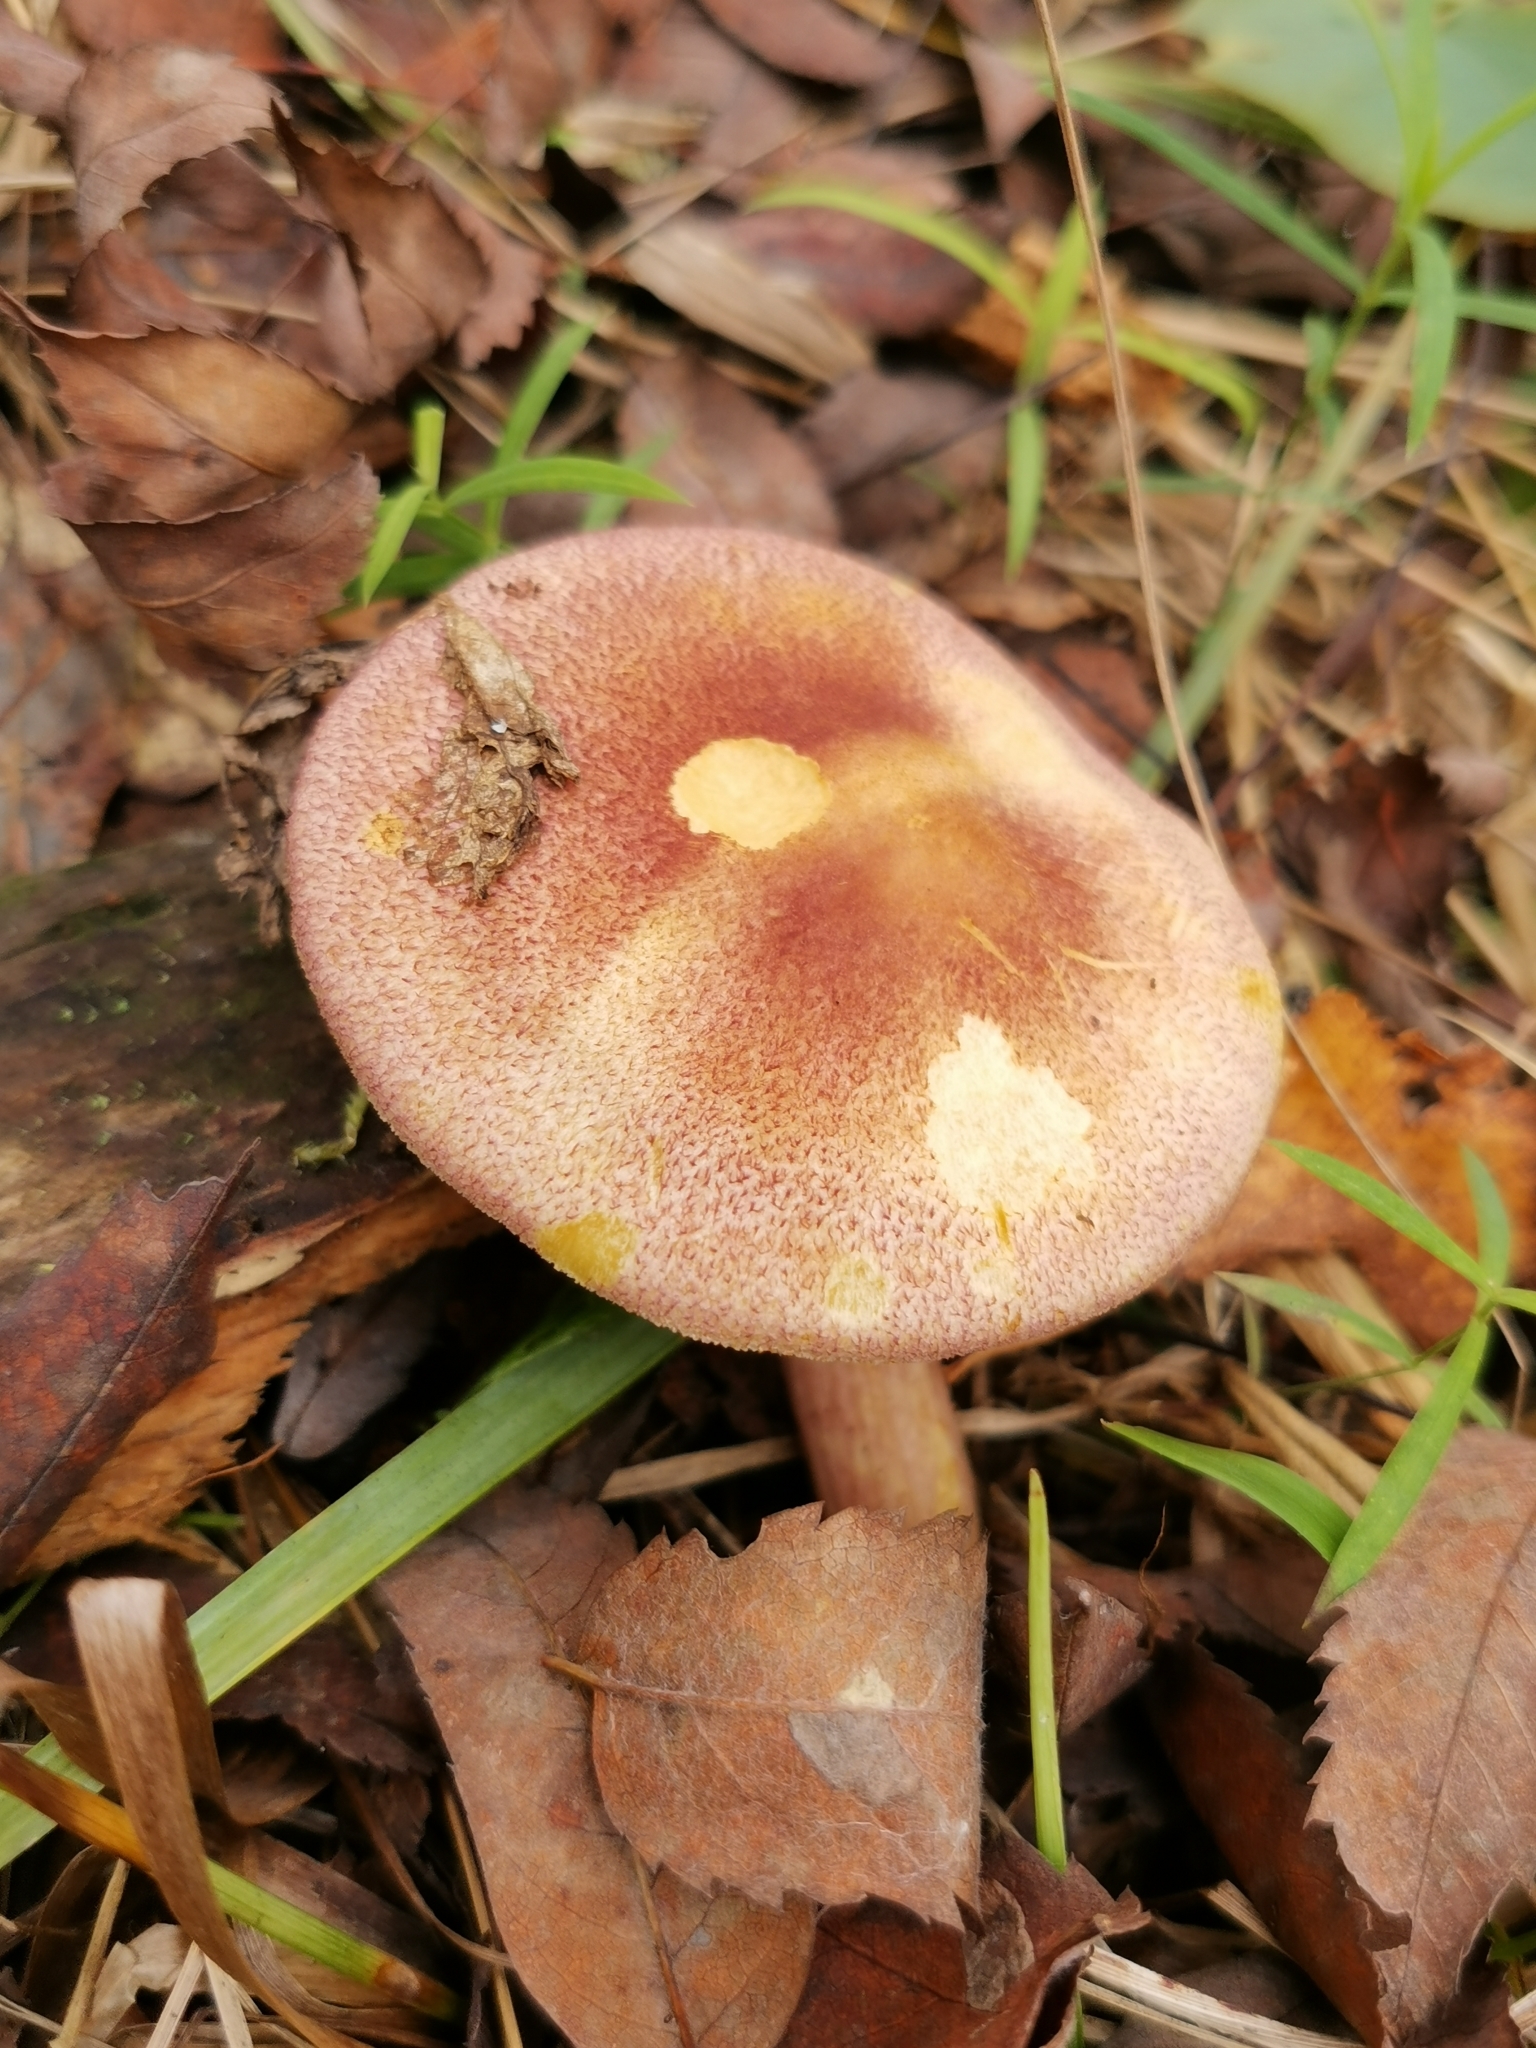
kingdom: Fungi
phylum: Basidiomycota
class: Agaricomycetes
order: Agaricales
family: Tricholomataceae
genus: Tricholomopsis
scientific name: Tricholomopsis rutilans
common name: Plums and custard
